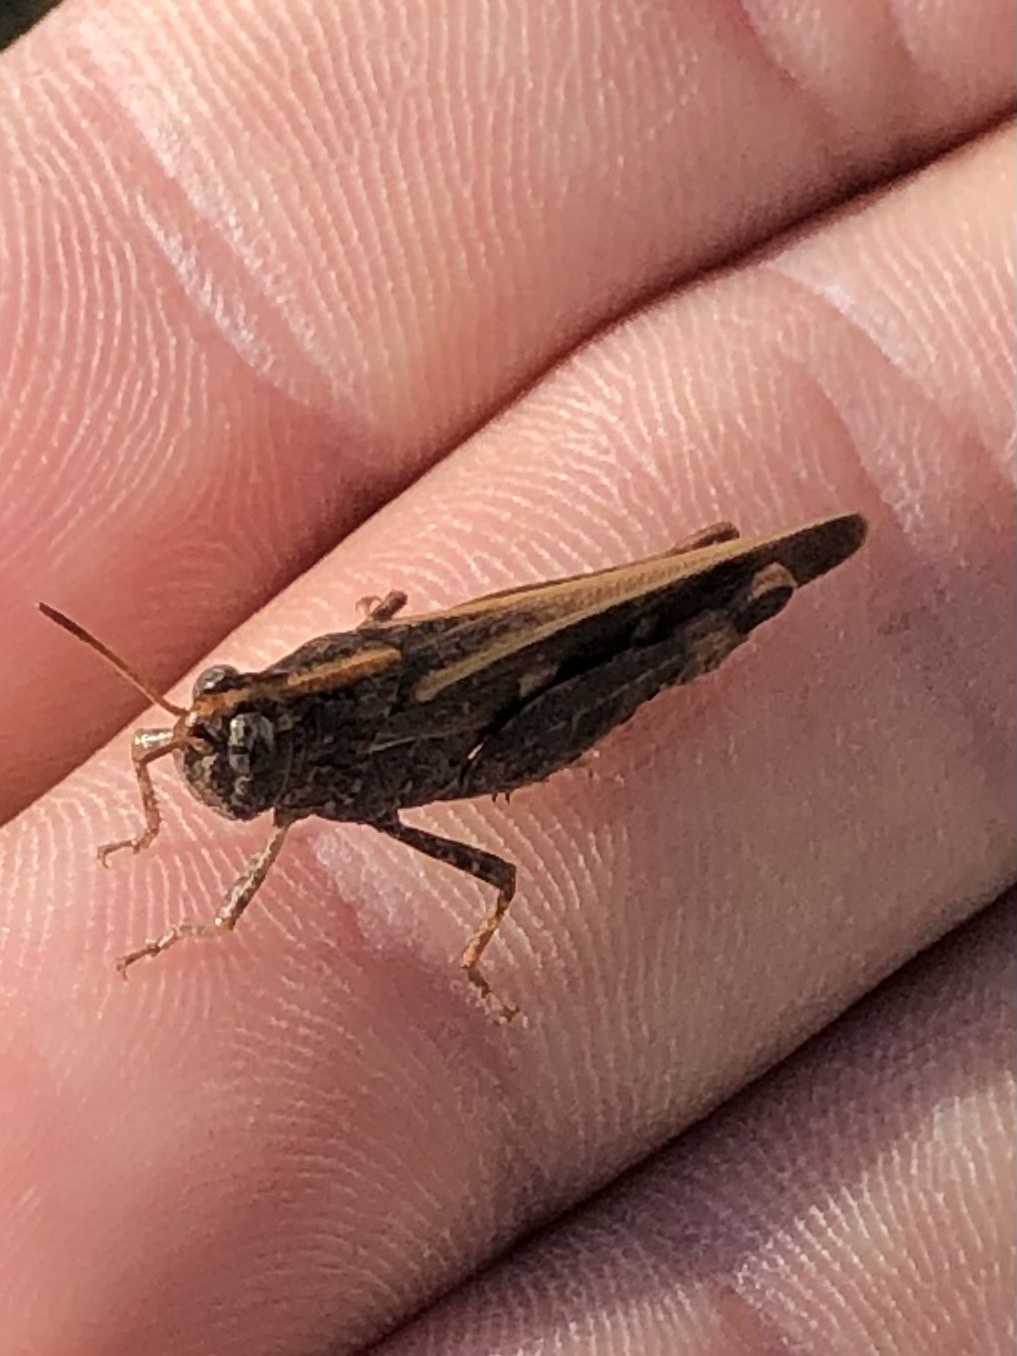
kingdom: Animalia
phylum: Arthropoda
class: Insecta
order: Orthoptera
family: Acrididae
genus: Aiolopus
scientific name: Aiolopus strepens
